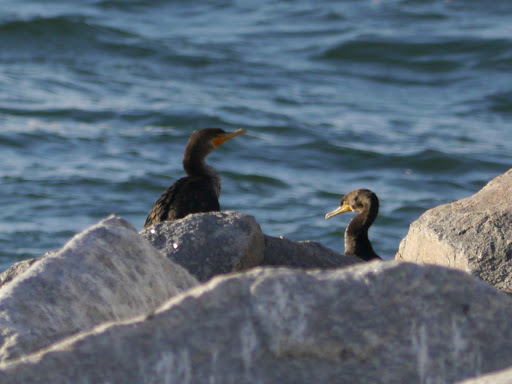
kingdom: Animalia
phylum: Chordata
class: Aves
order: Suliformes
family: Phalacrocoracidae
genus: Phalacrocorax
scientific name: Phalacrocorax auritus
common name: Double-crested cormorant
